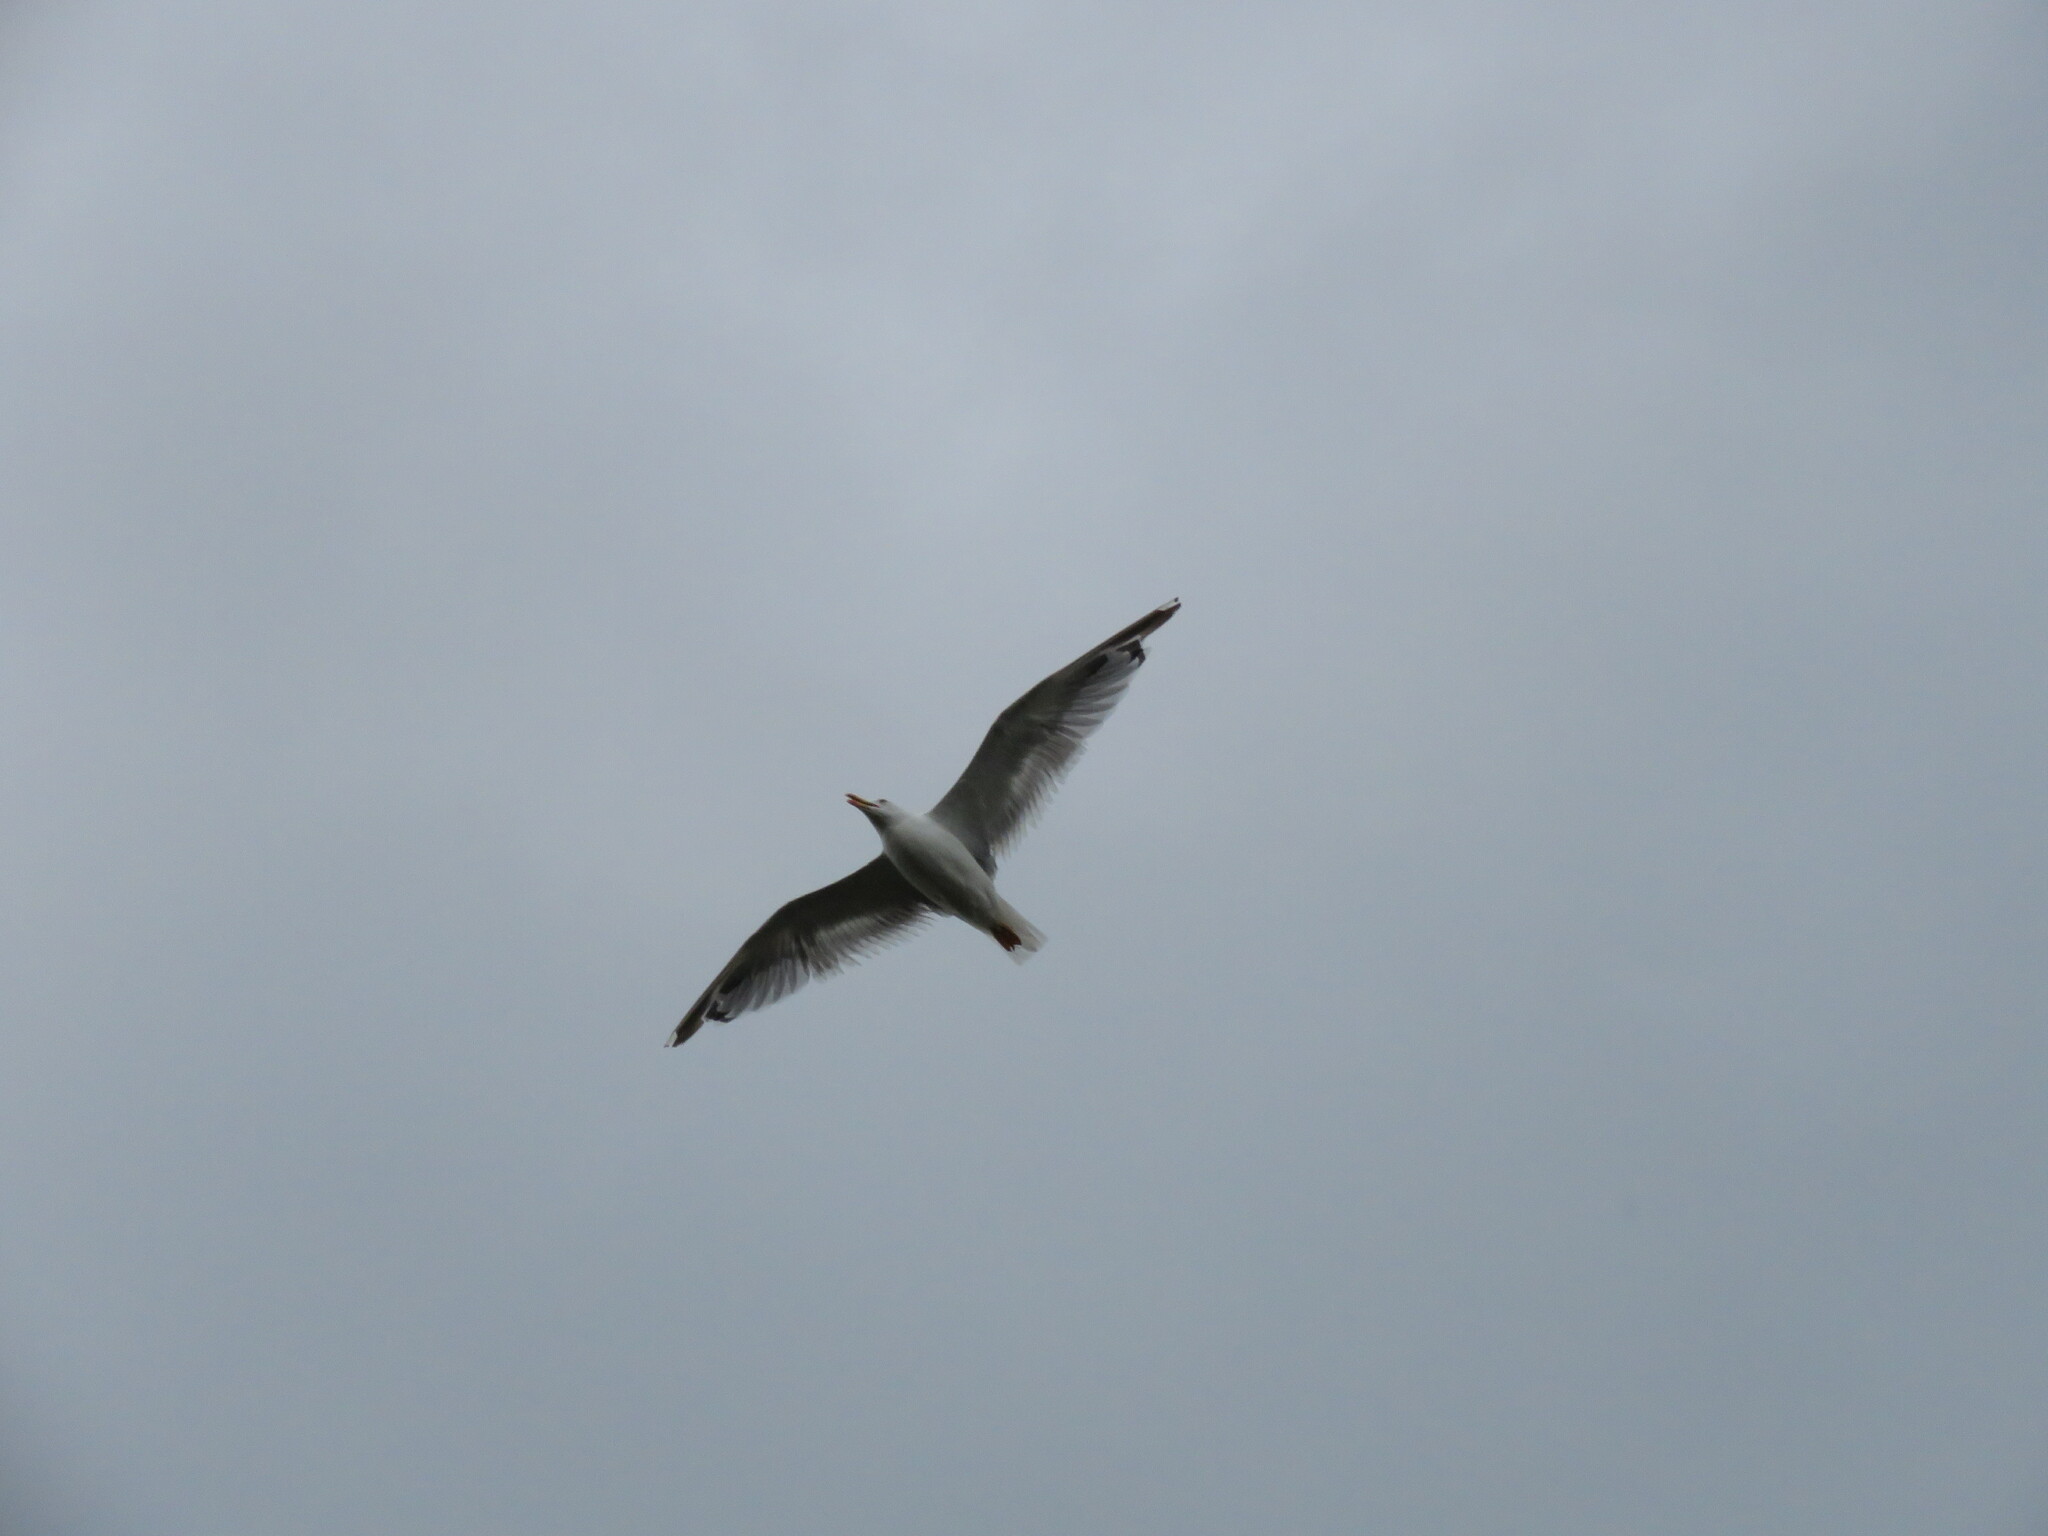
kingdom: Animalia
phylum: Chordata
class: Aves
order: Charadriiformes
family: Laridae
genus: Larus
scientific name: Larus michahellis
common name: Yellow-legged gull
